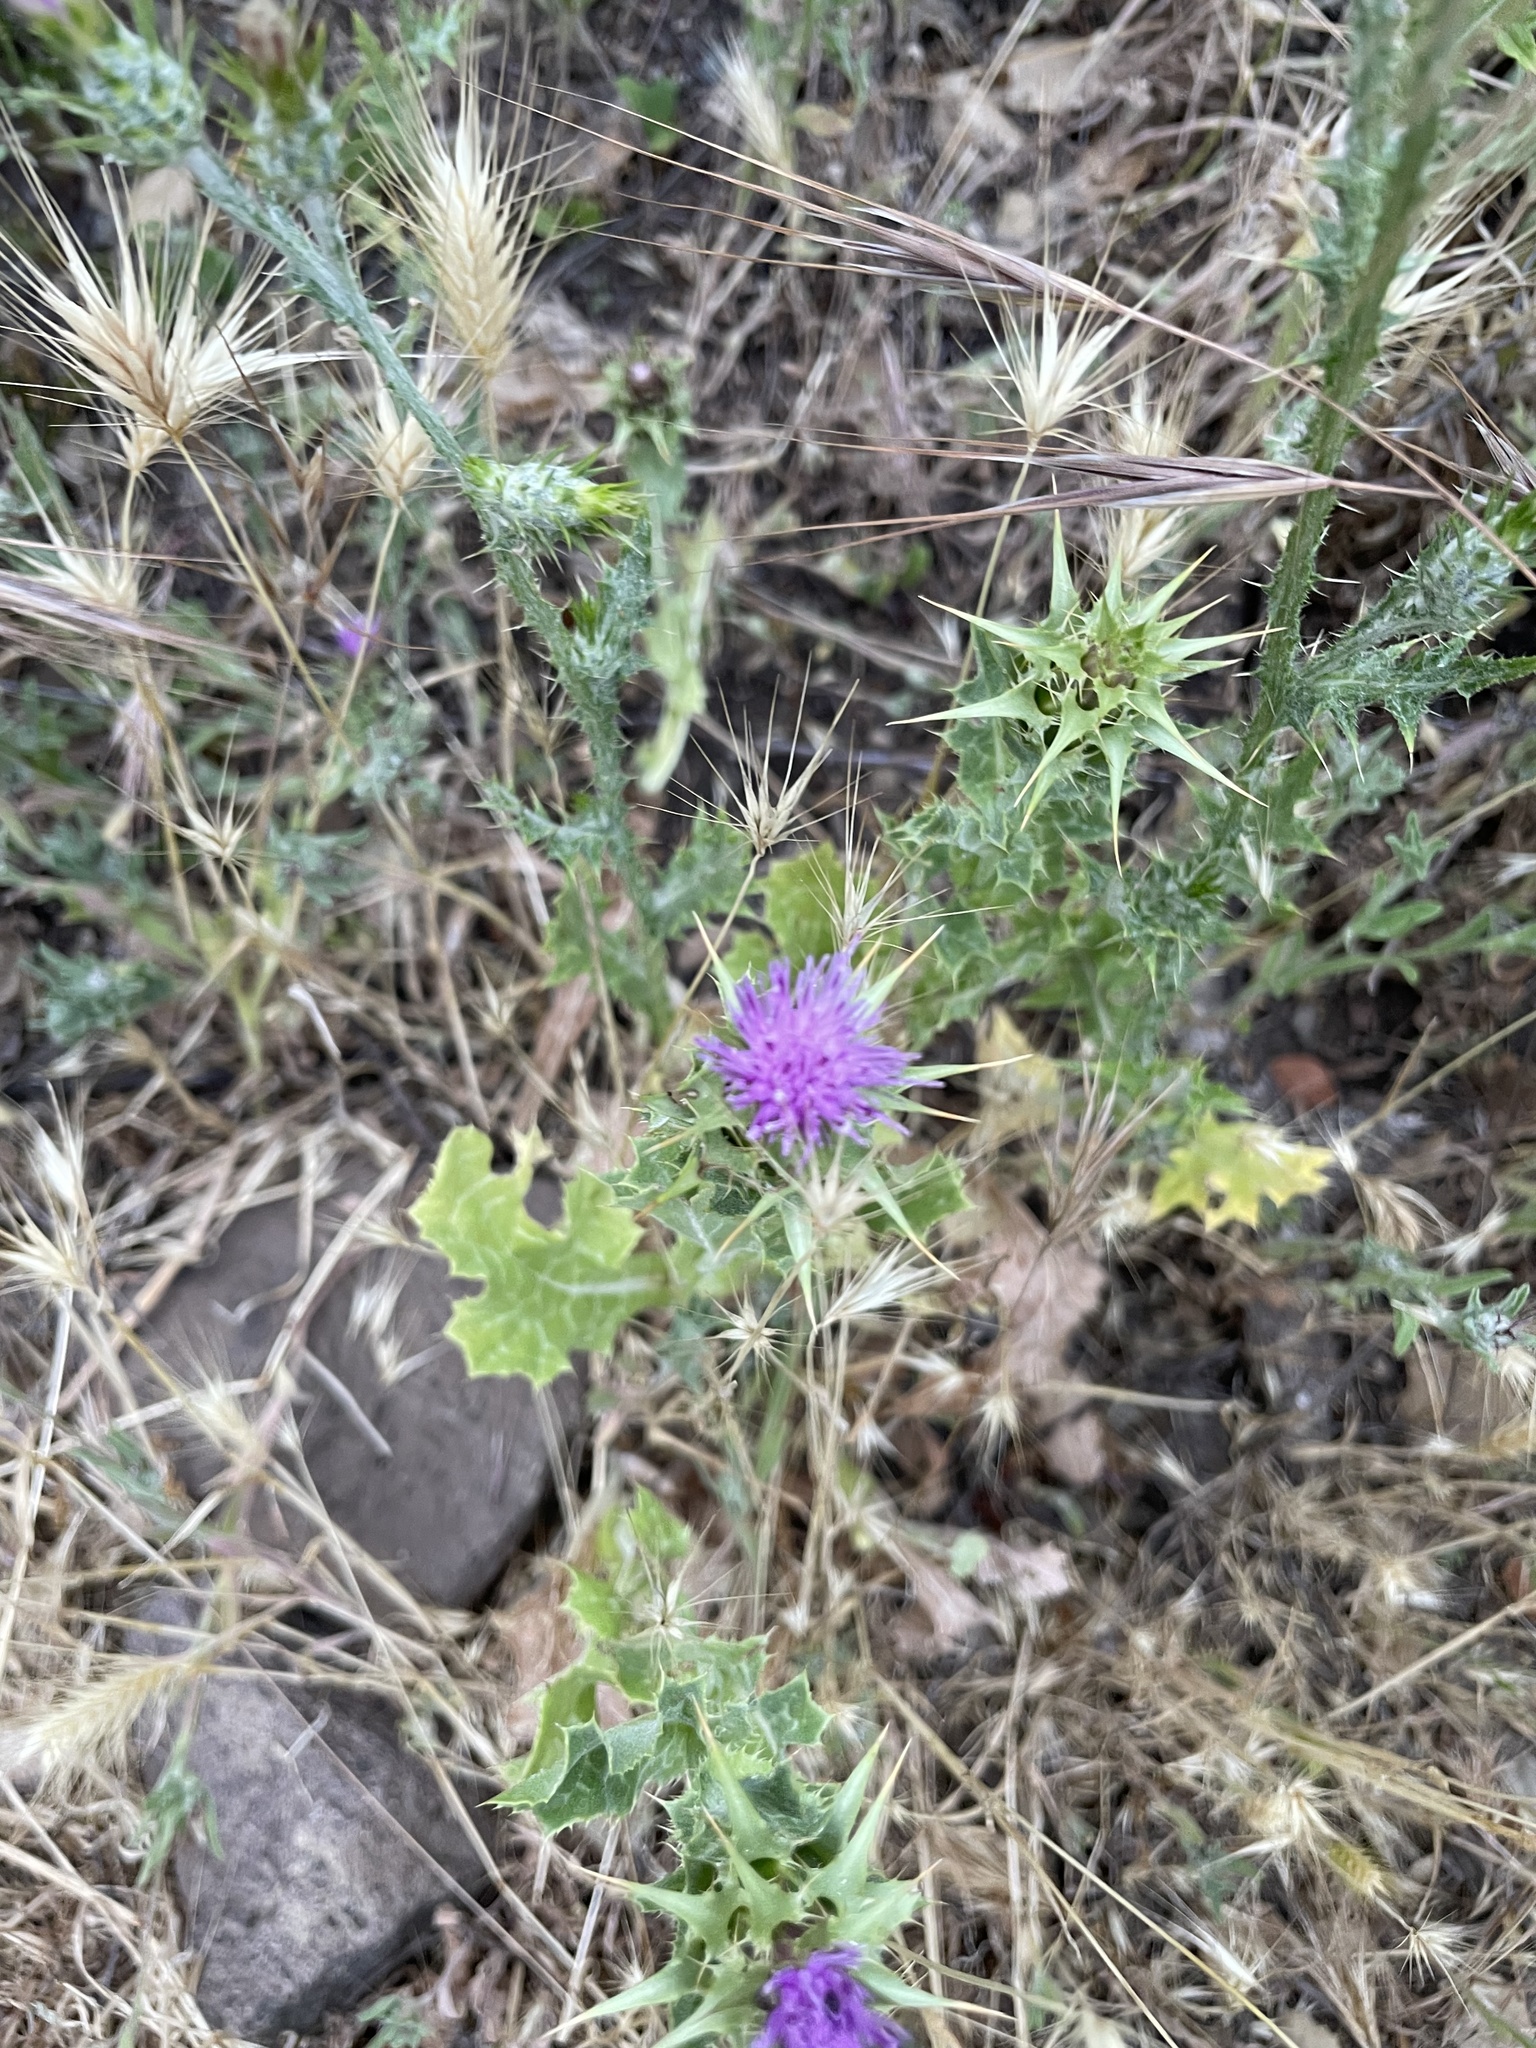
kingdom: Plantae
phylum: Tracheophyta
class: Magnoliopsida
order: Asterales
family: Asteraceae
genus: Silybum
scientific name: Silybum marianum
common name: Milk thistle
